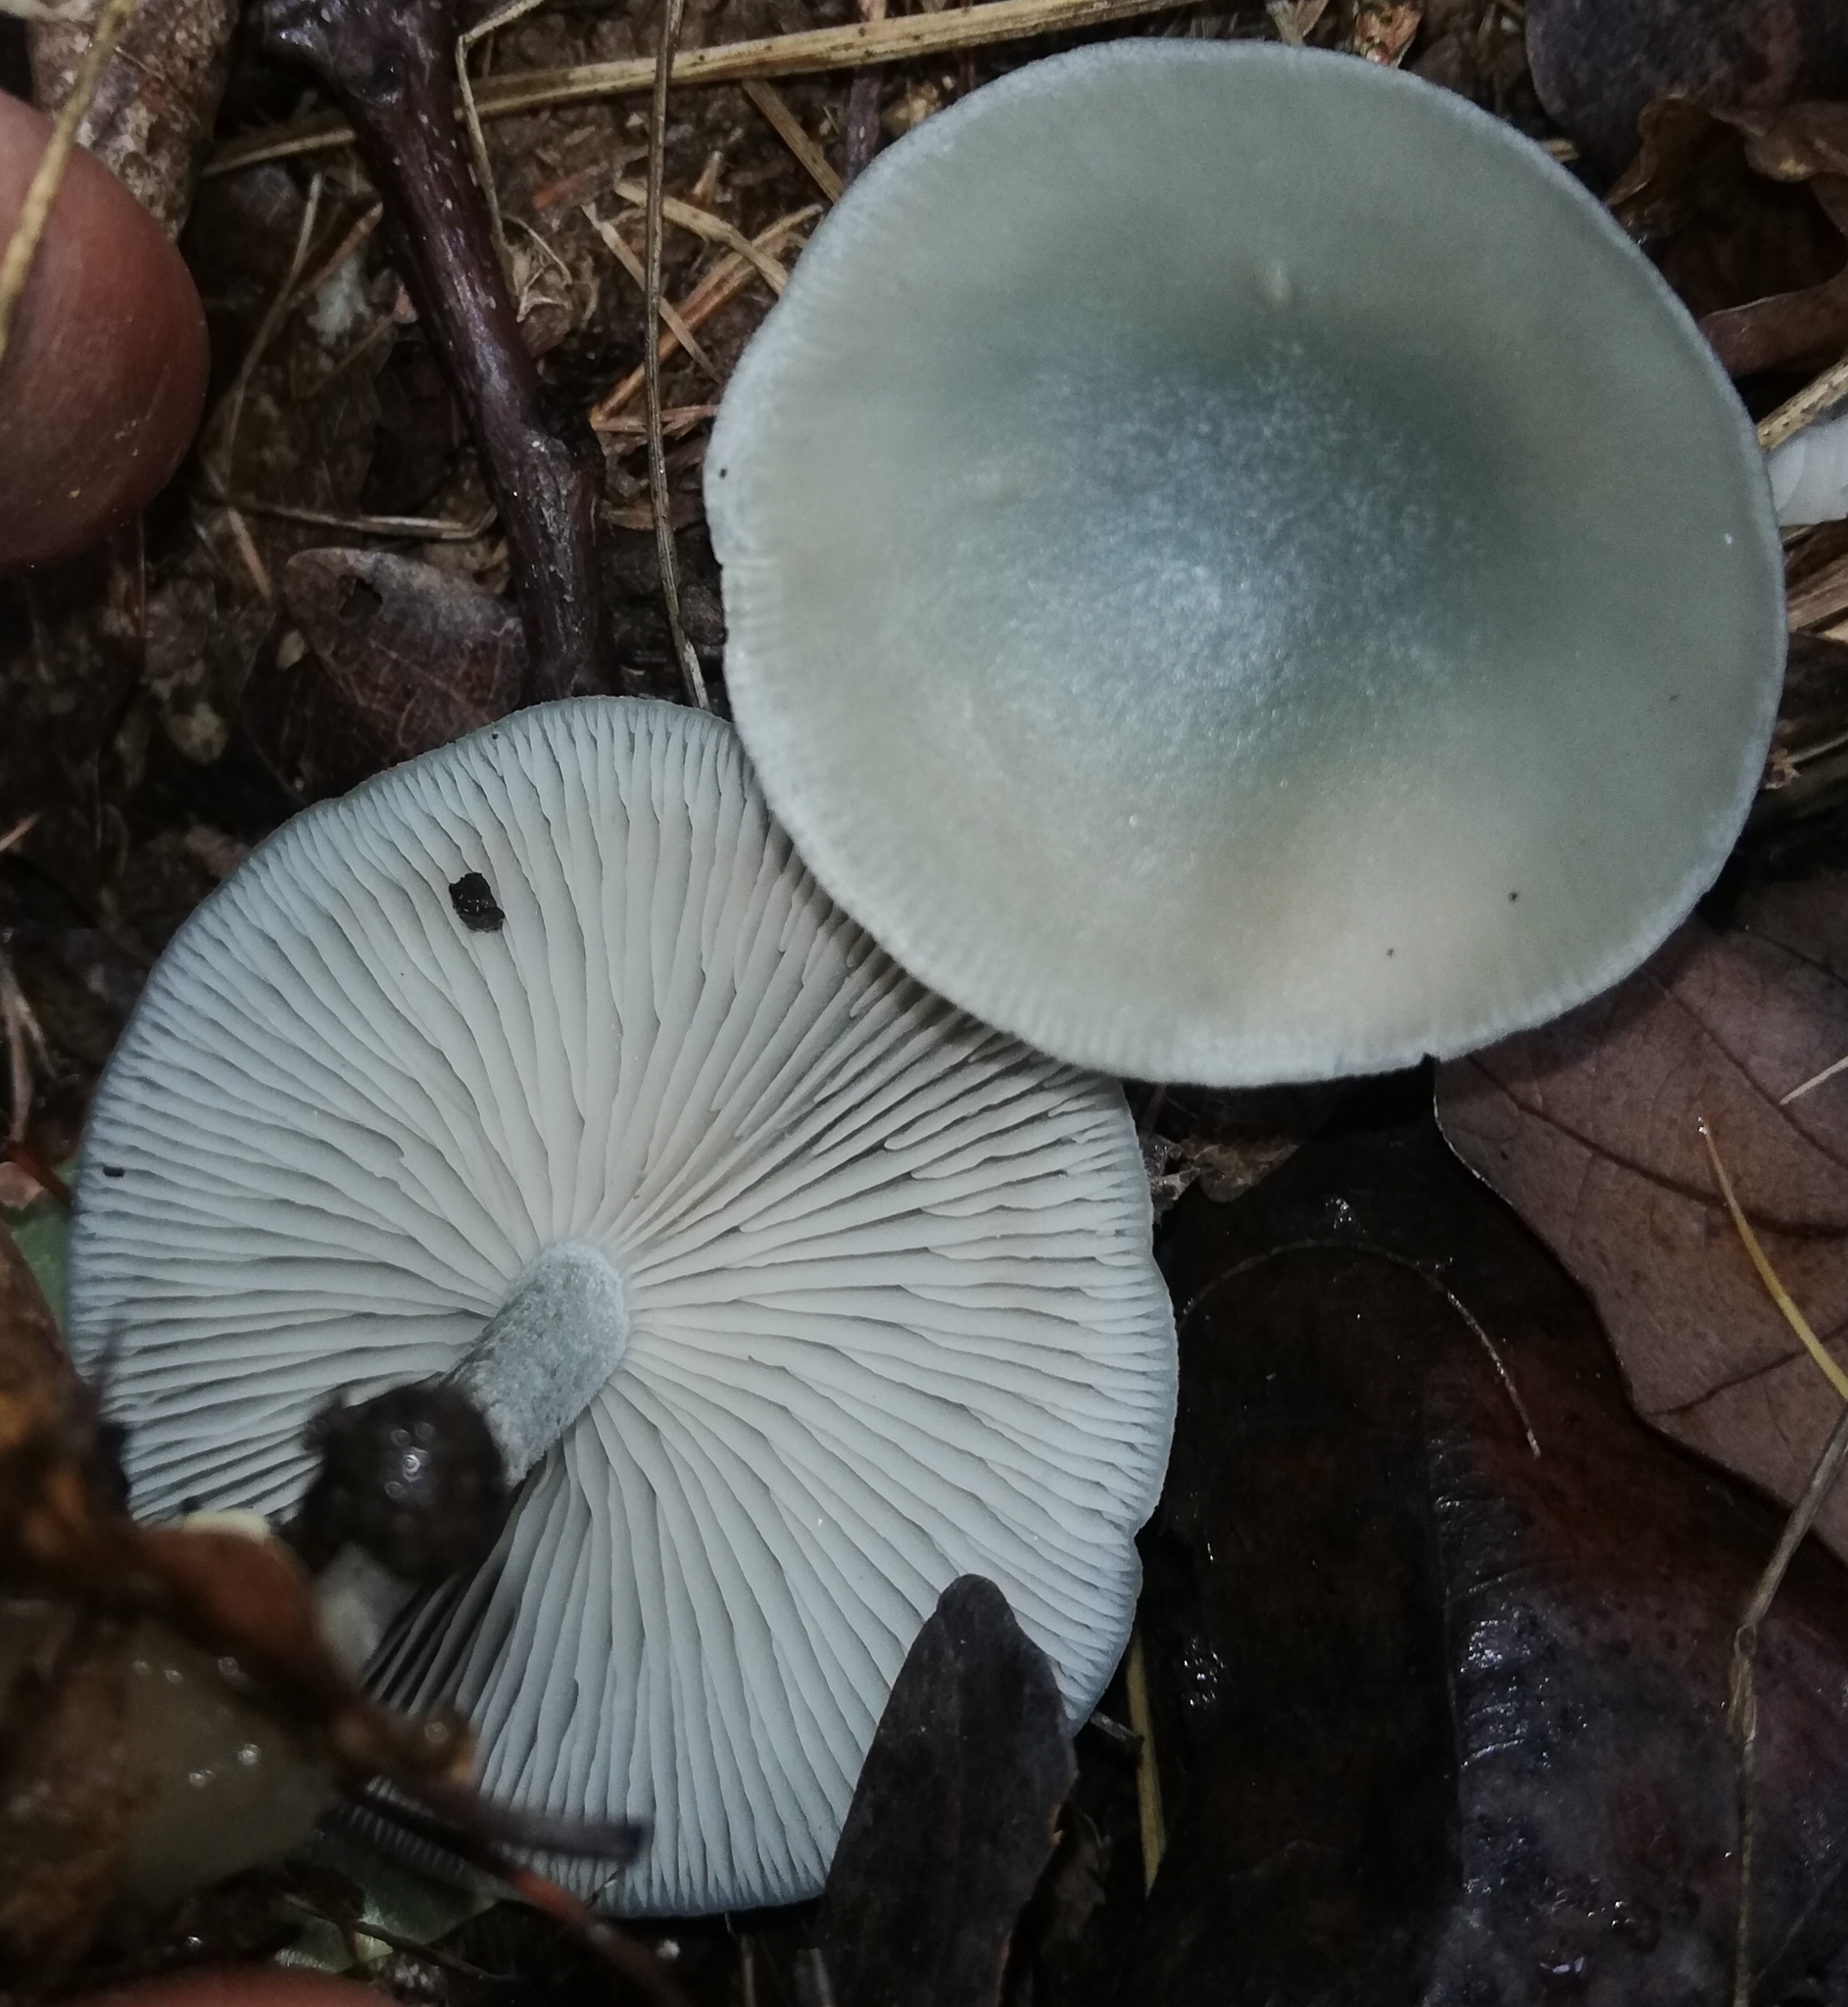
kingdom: Fungi
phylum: Basidiomycota
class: Agaricomycetes
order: Agaricales
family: Tricholomataceae
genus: Collybia
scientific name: Collybia
